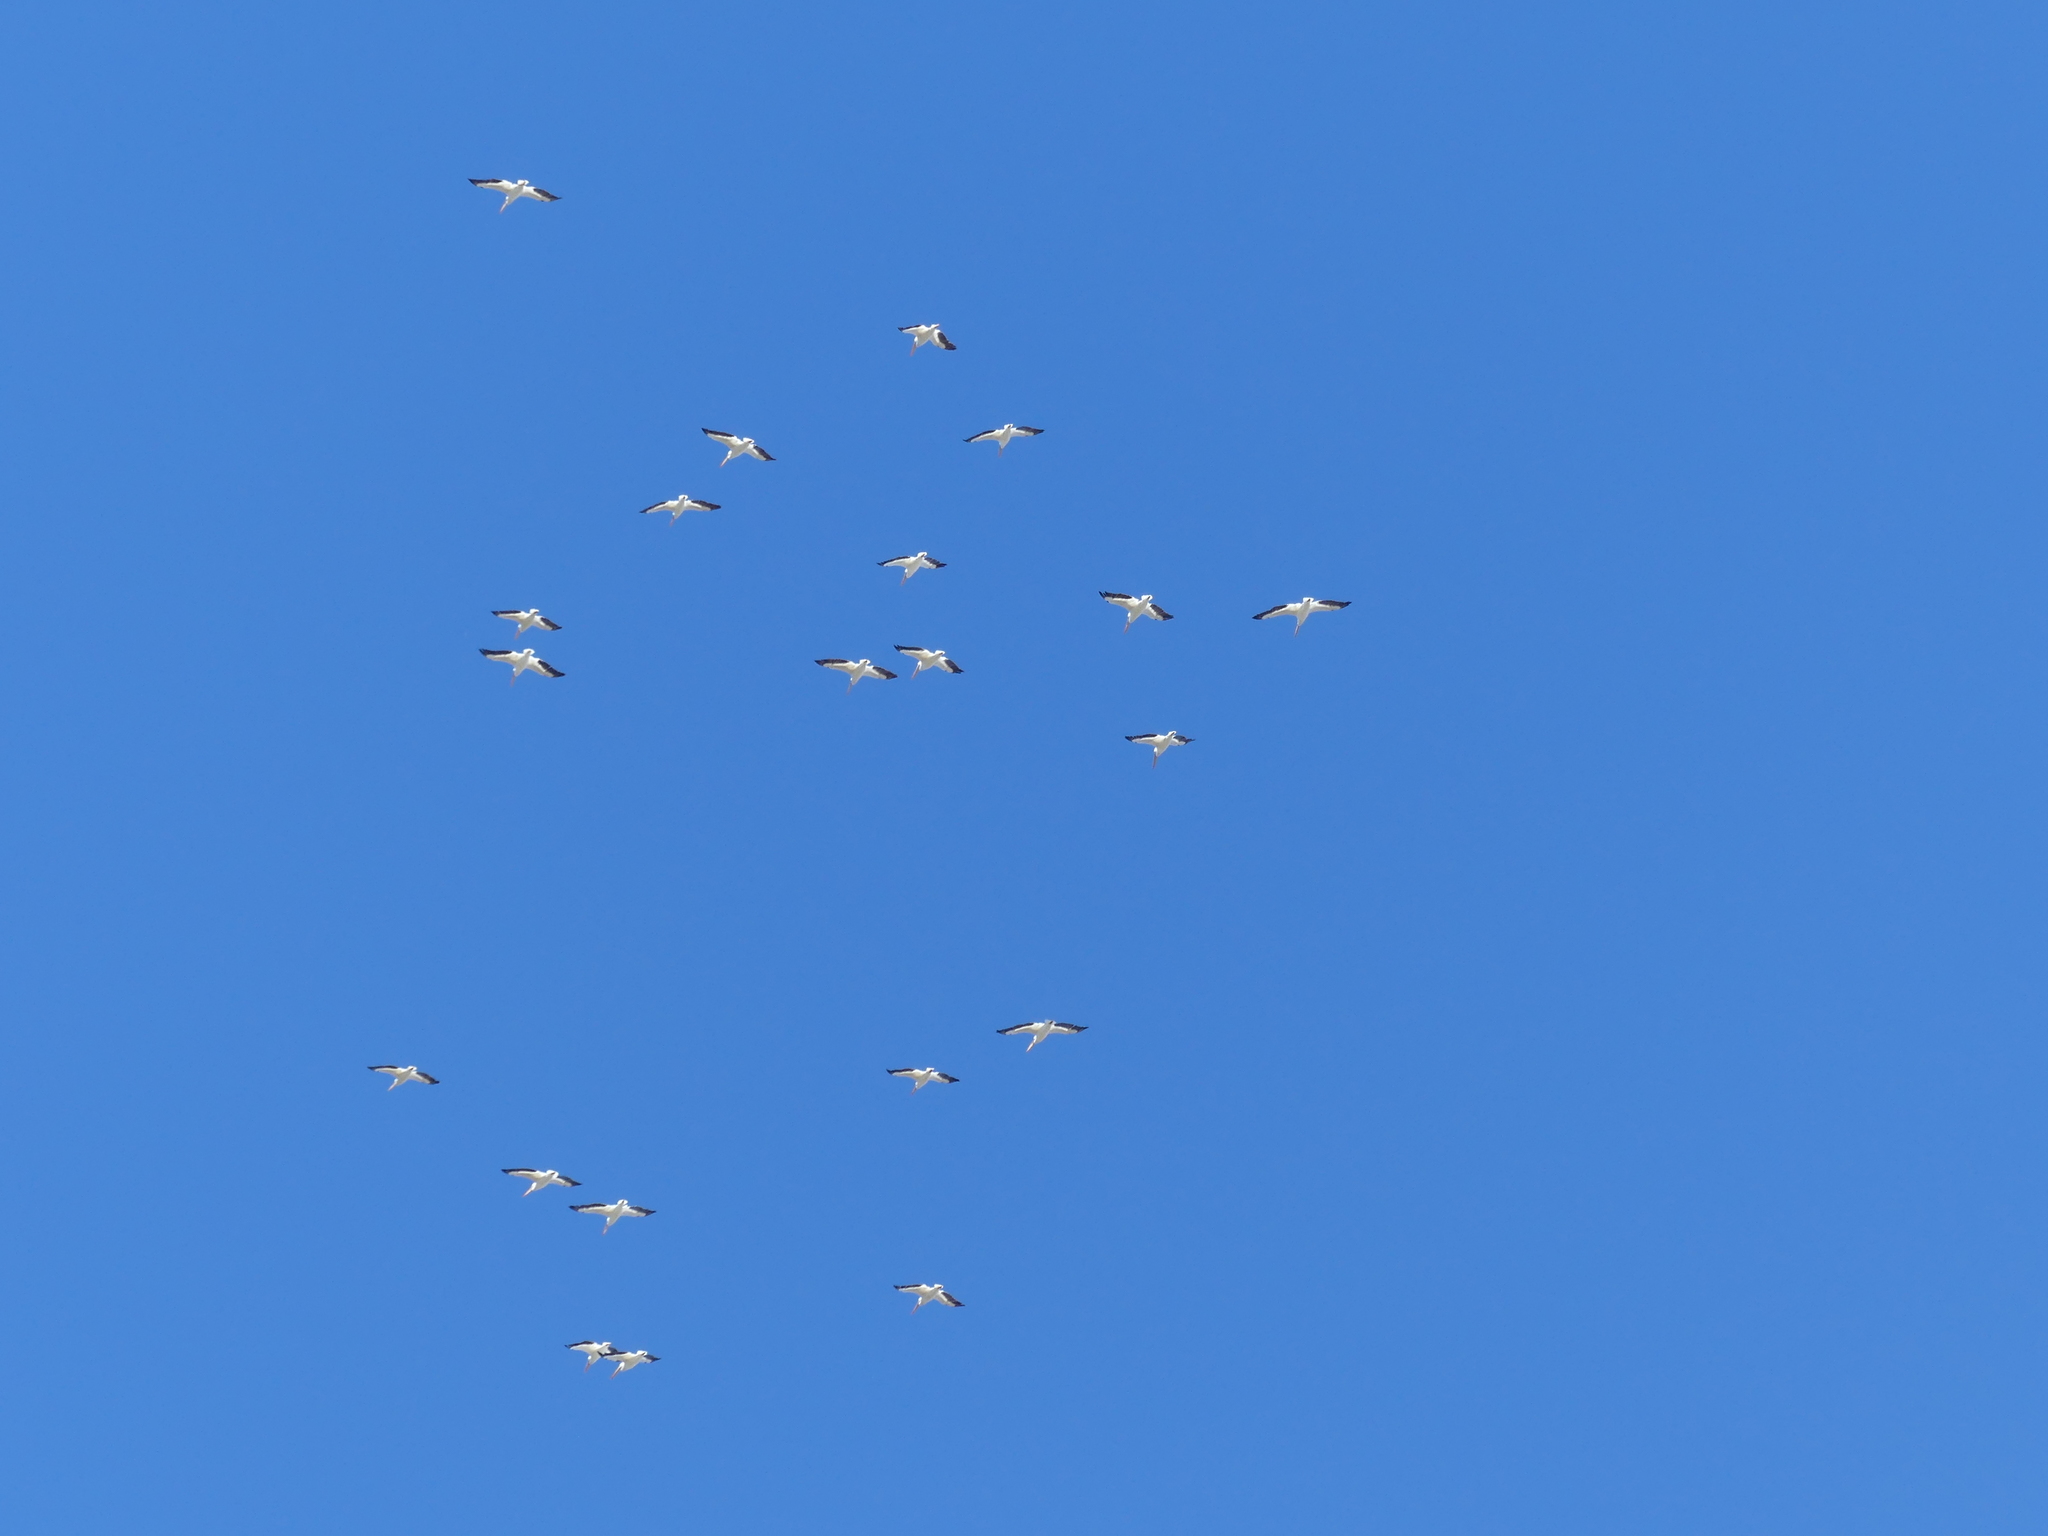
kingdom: Animalia
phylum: Chordata
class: Aves
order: Pelecaniformes
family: Pelecanidae
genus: Pelecanus
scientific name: Pelecanus erythrorhynchos
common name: American white pelican
